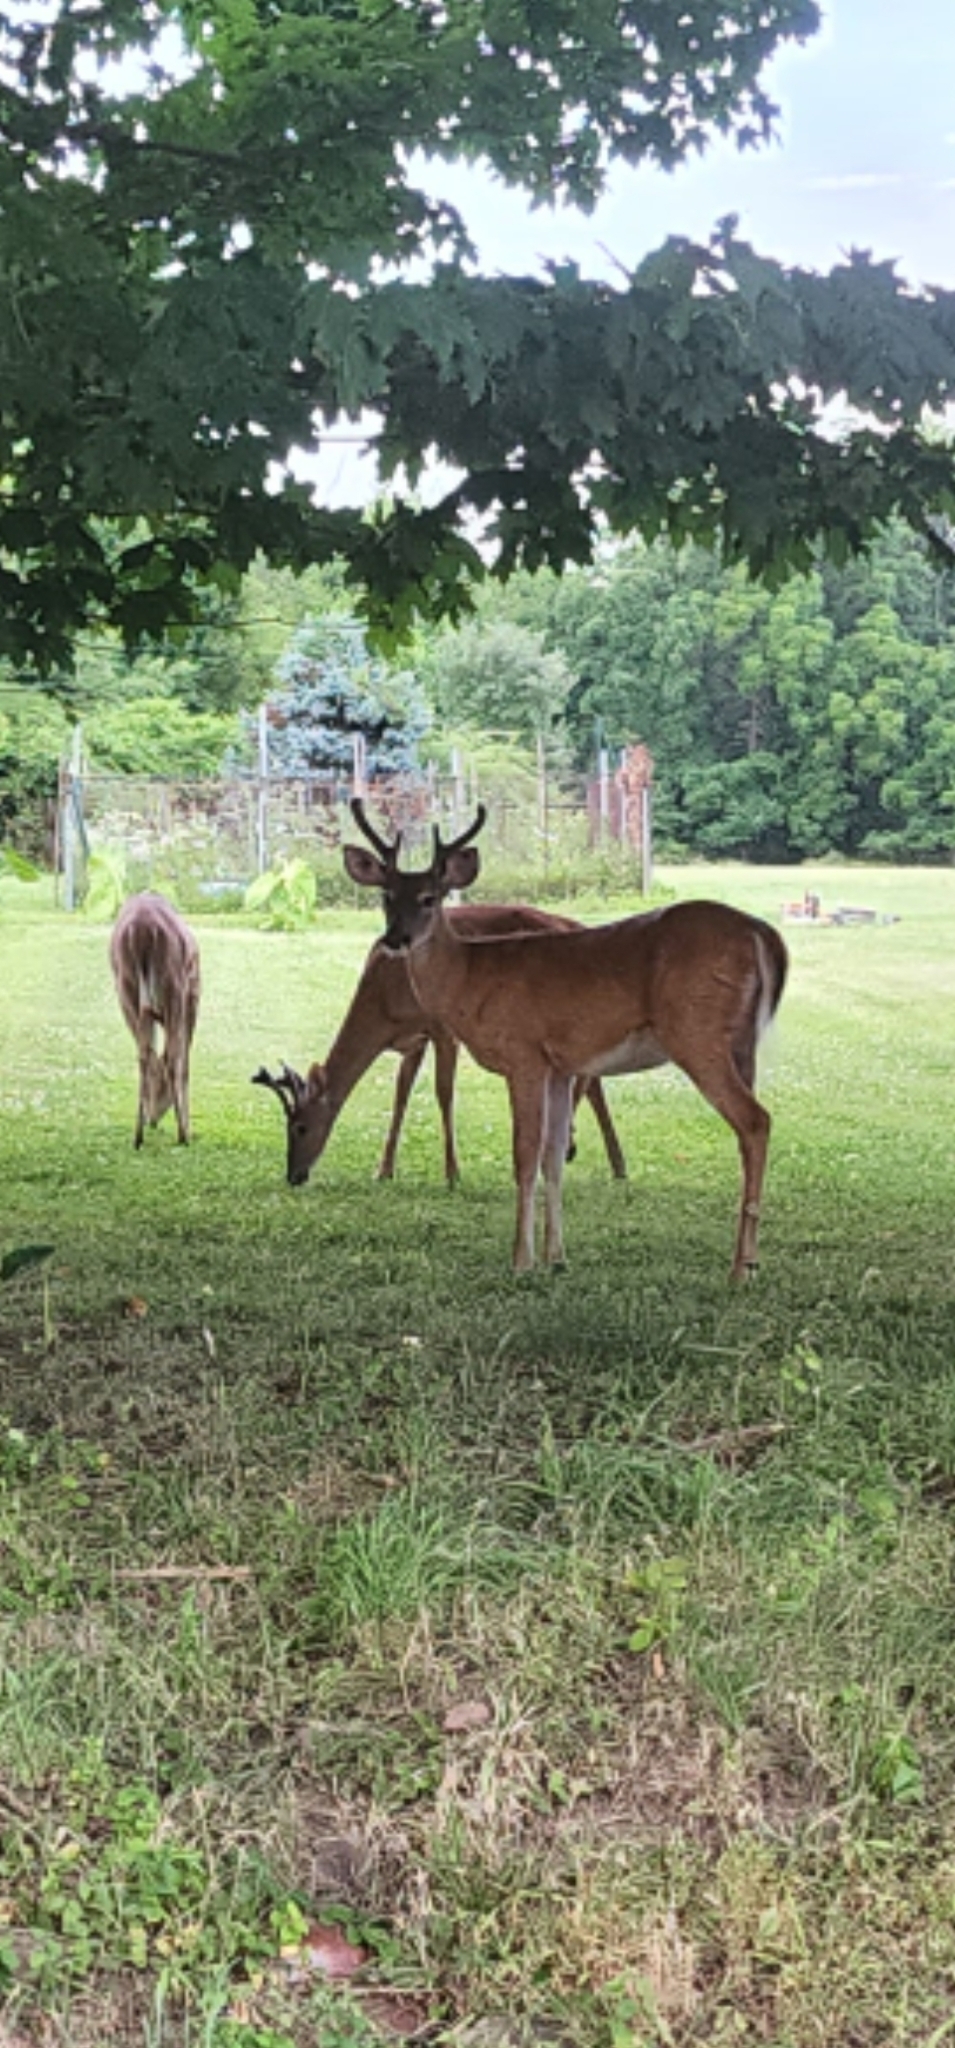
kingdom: Animalia
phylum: Chordata
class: Mammalia
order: Artiodactyla
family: Cervidae
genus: Odocoileus
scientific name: Odocoileus virginianus
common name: White-tailed deer
